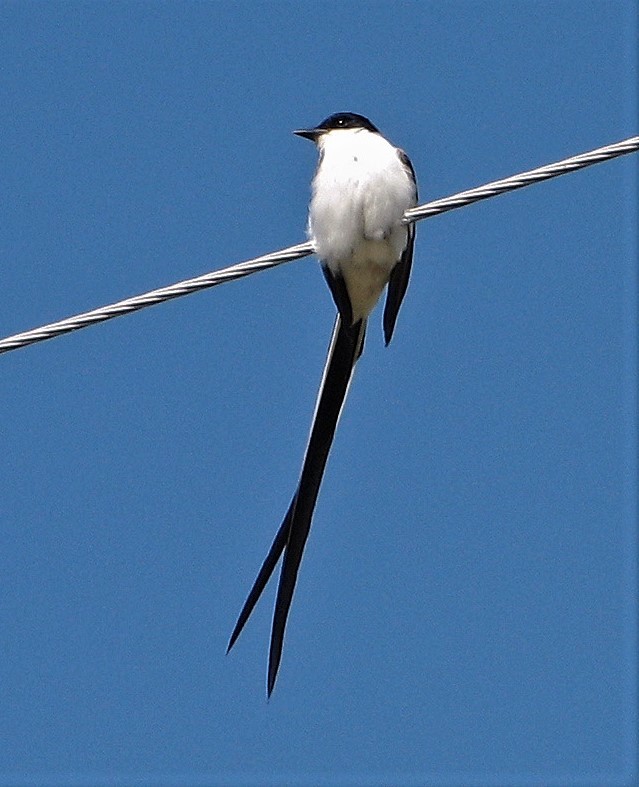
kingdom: Animalia
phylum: Chordata
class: Aves
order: Passeriformes
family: Tyrannidae
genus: Tyrannus
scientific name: Tyrannus savana
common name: Fork-tailed flycatcher
